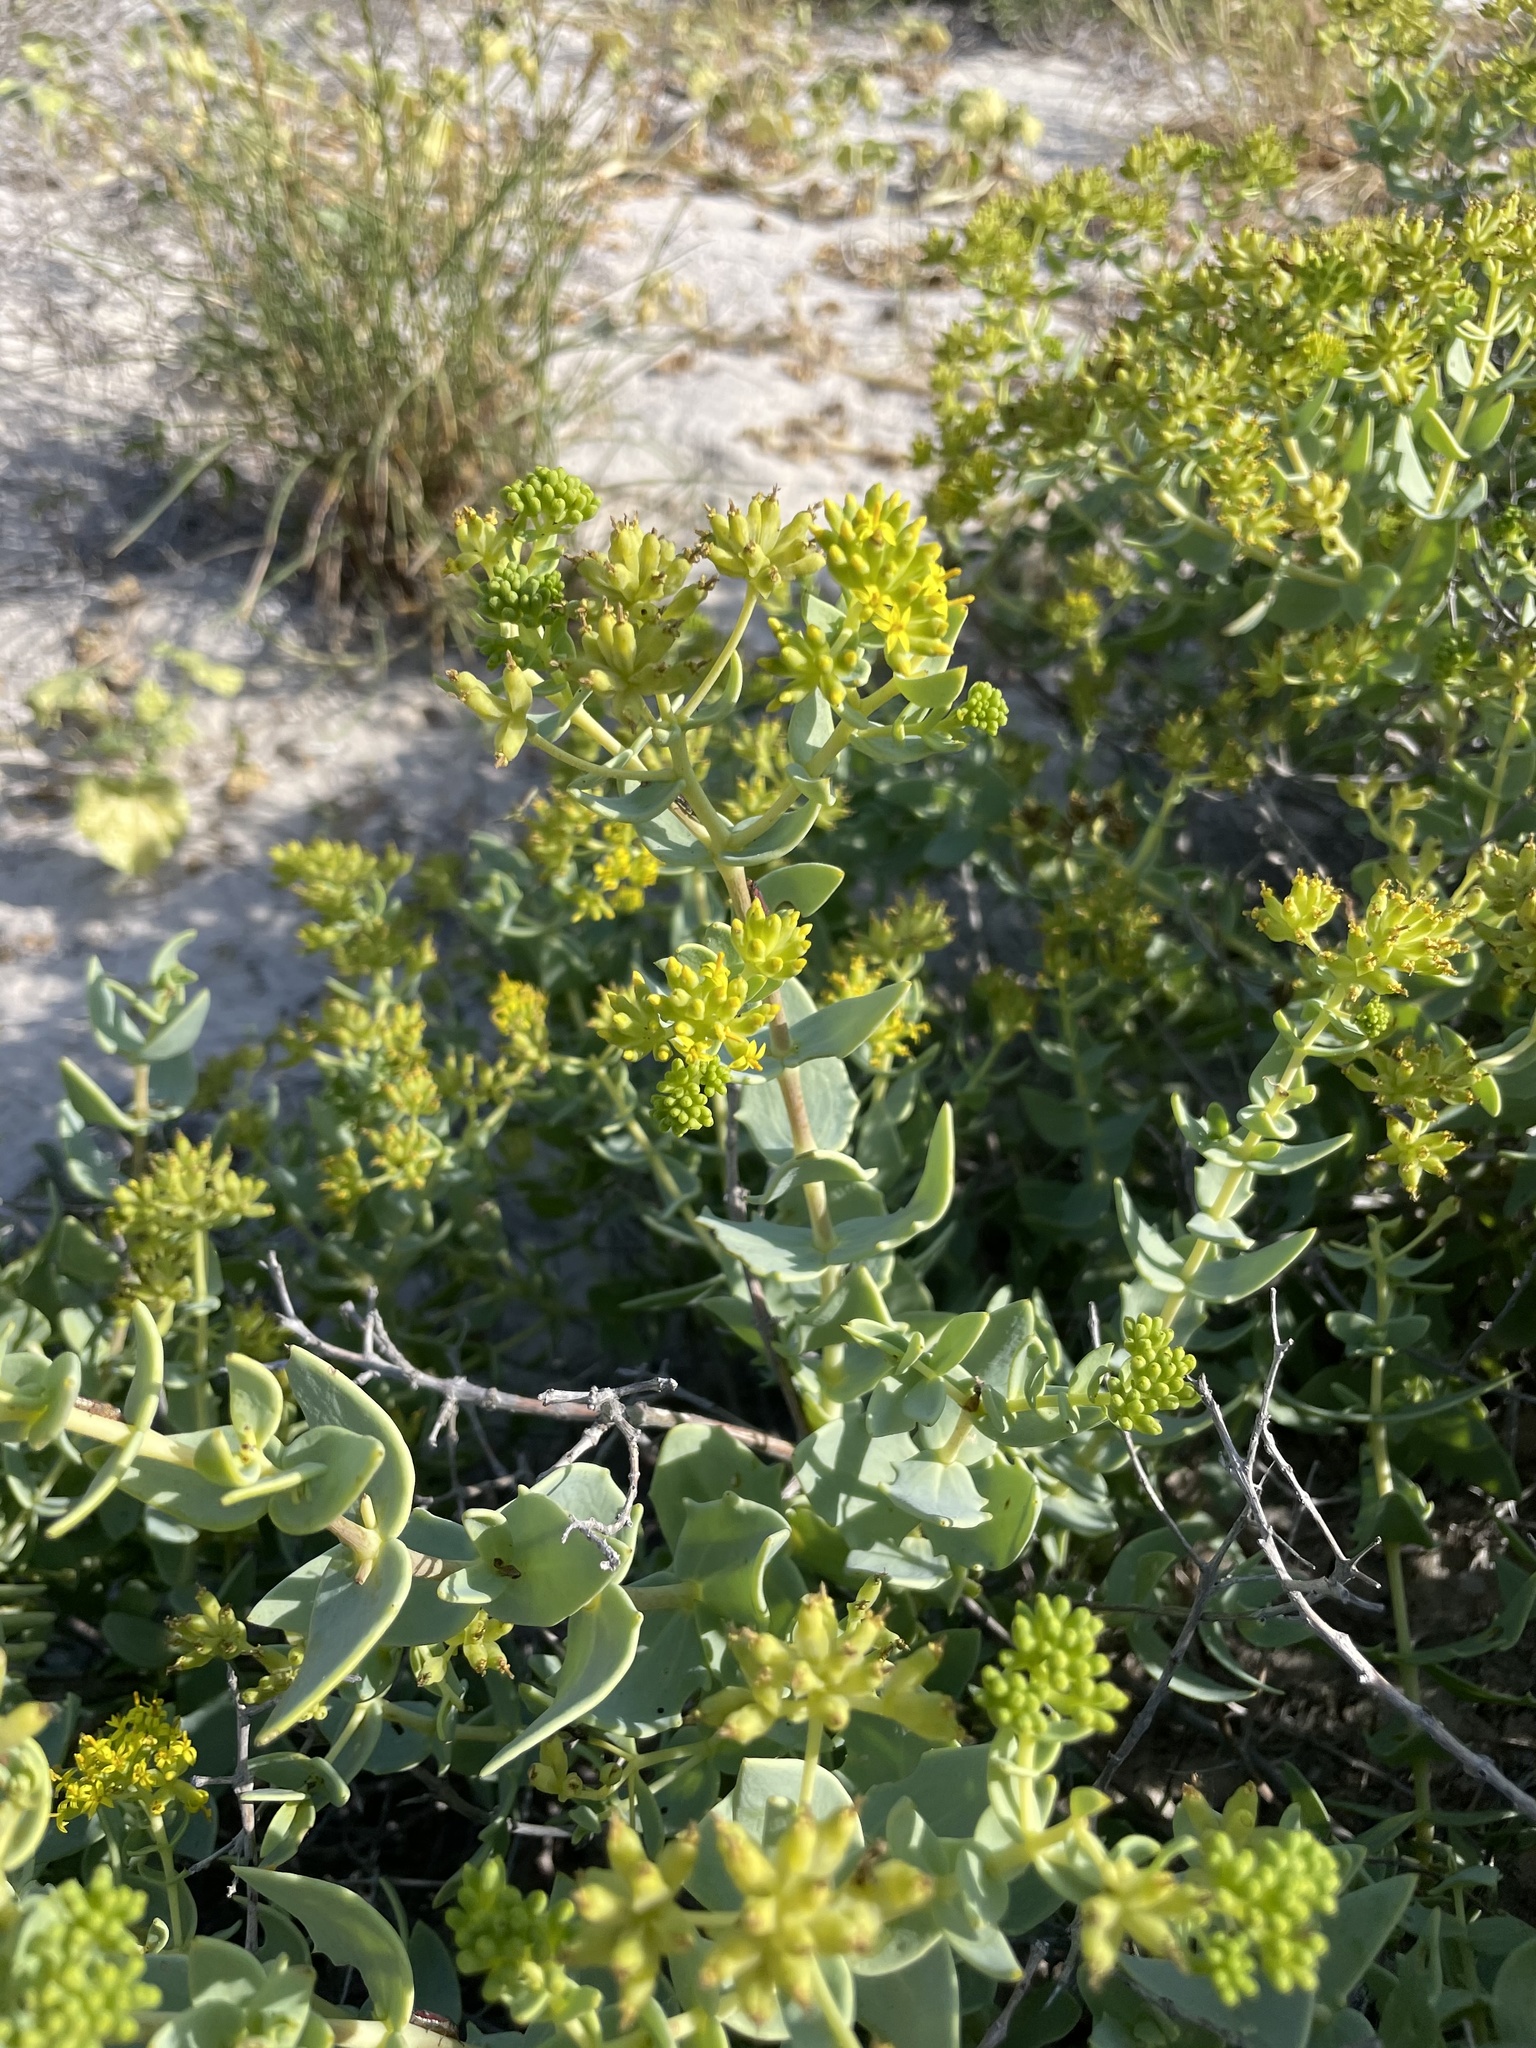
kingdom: Plantae
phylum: Tracheophyta
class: Magnoliopsida
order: Asterales
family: Asteraceae
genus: Coulterella
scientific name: Coulterella capitata
